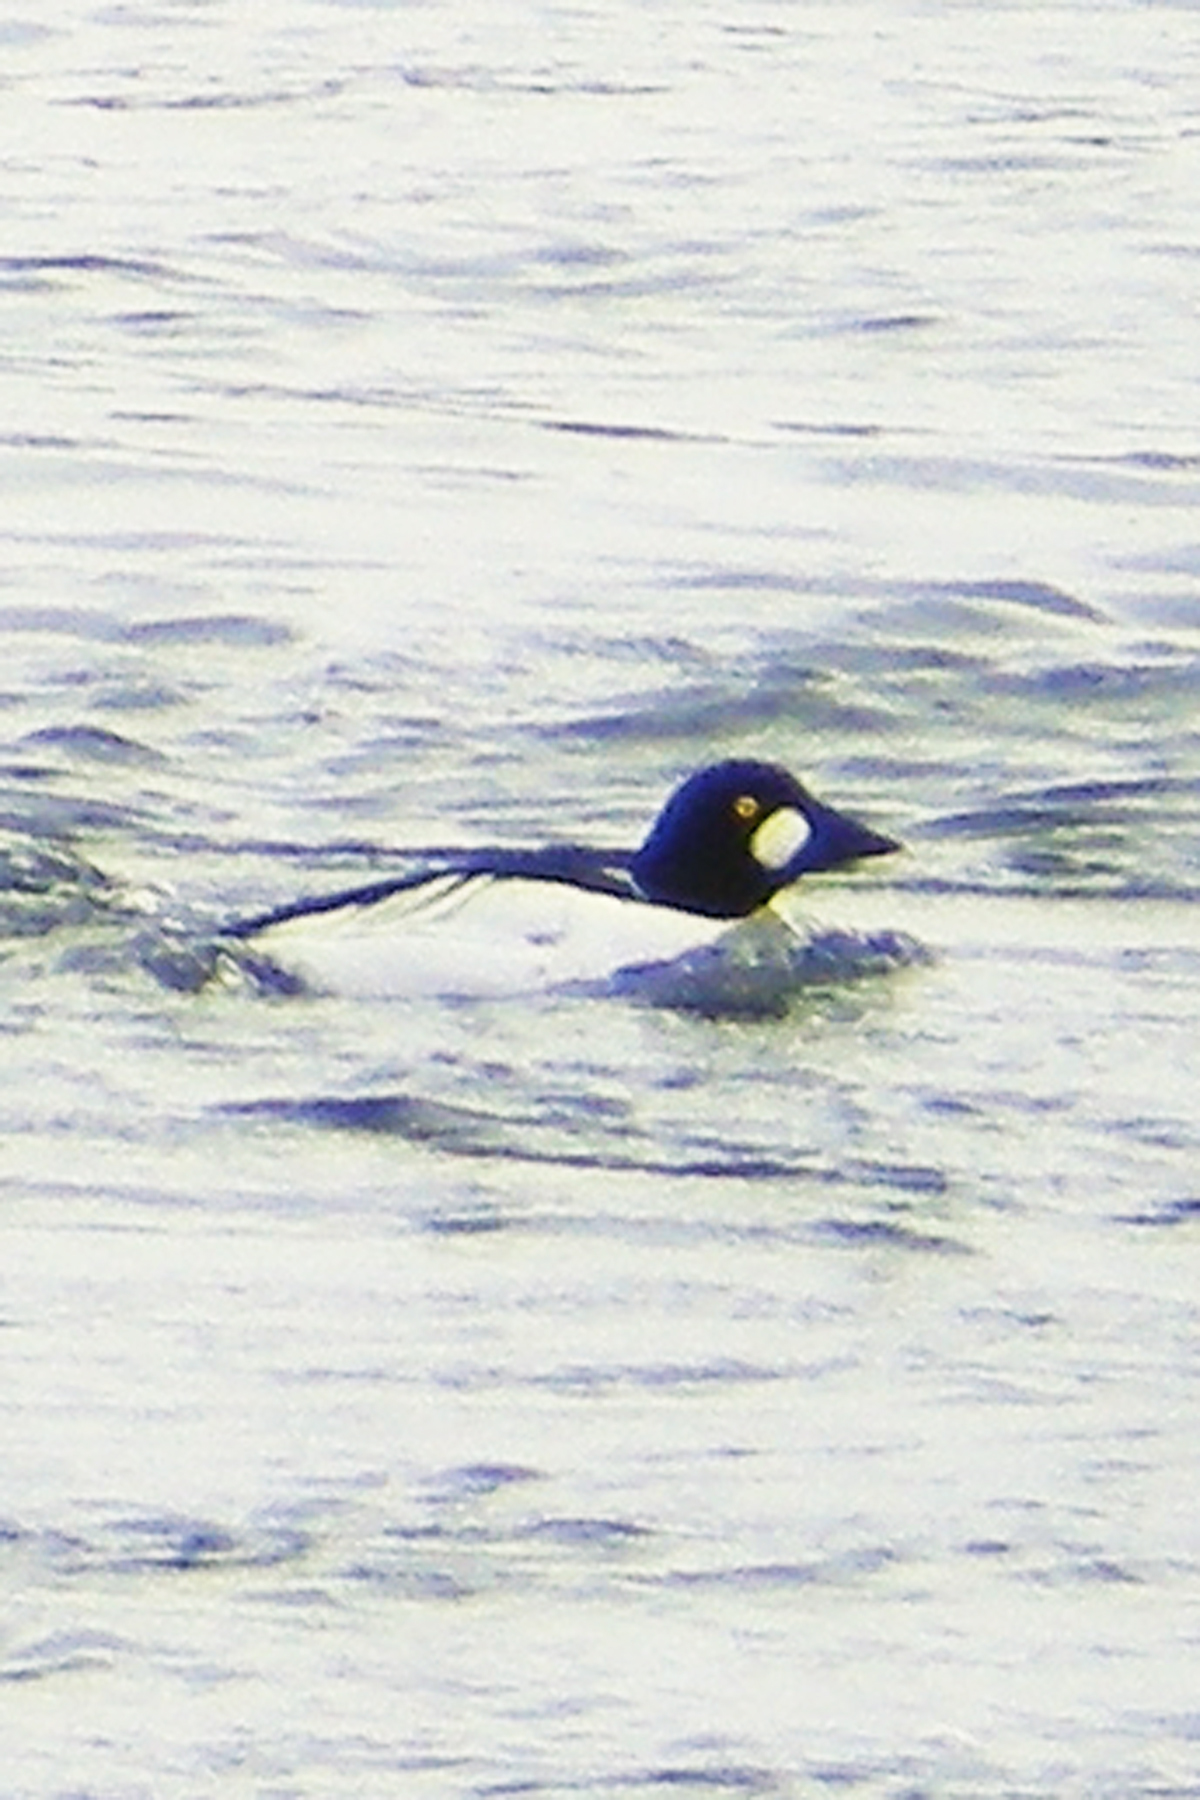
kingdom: Animalia
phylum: Chordata
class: Aves
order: Anseriformes
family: Anatidae
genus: Bucephala
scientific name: Bucephala clangula
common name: Common goldeneye
